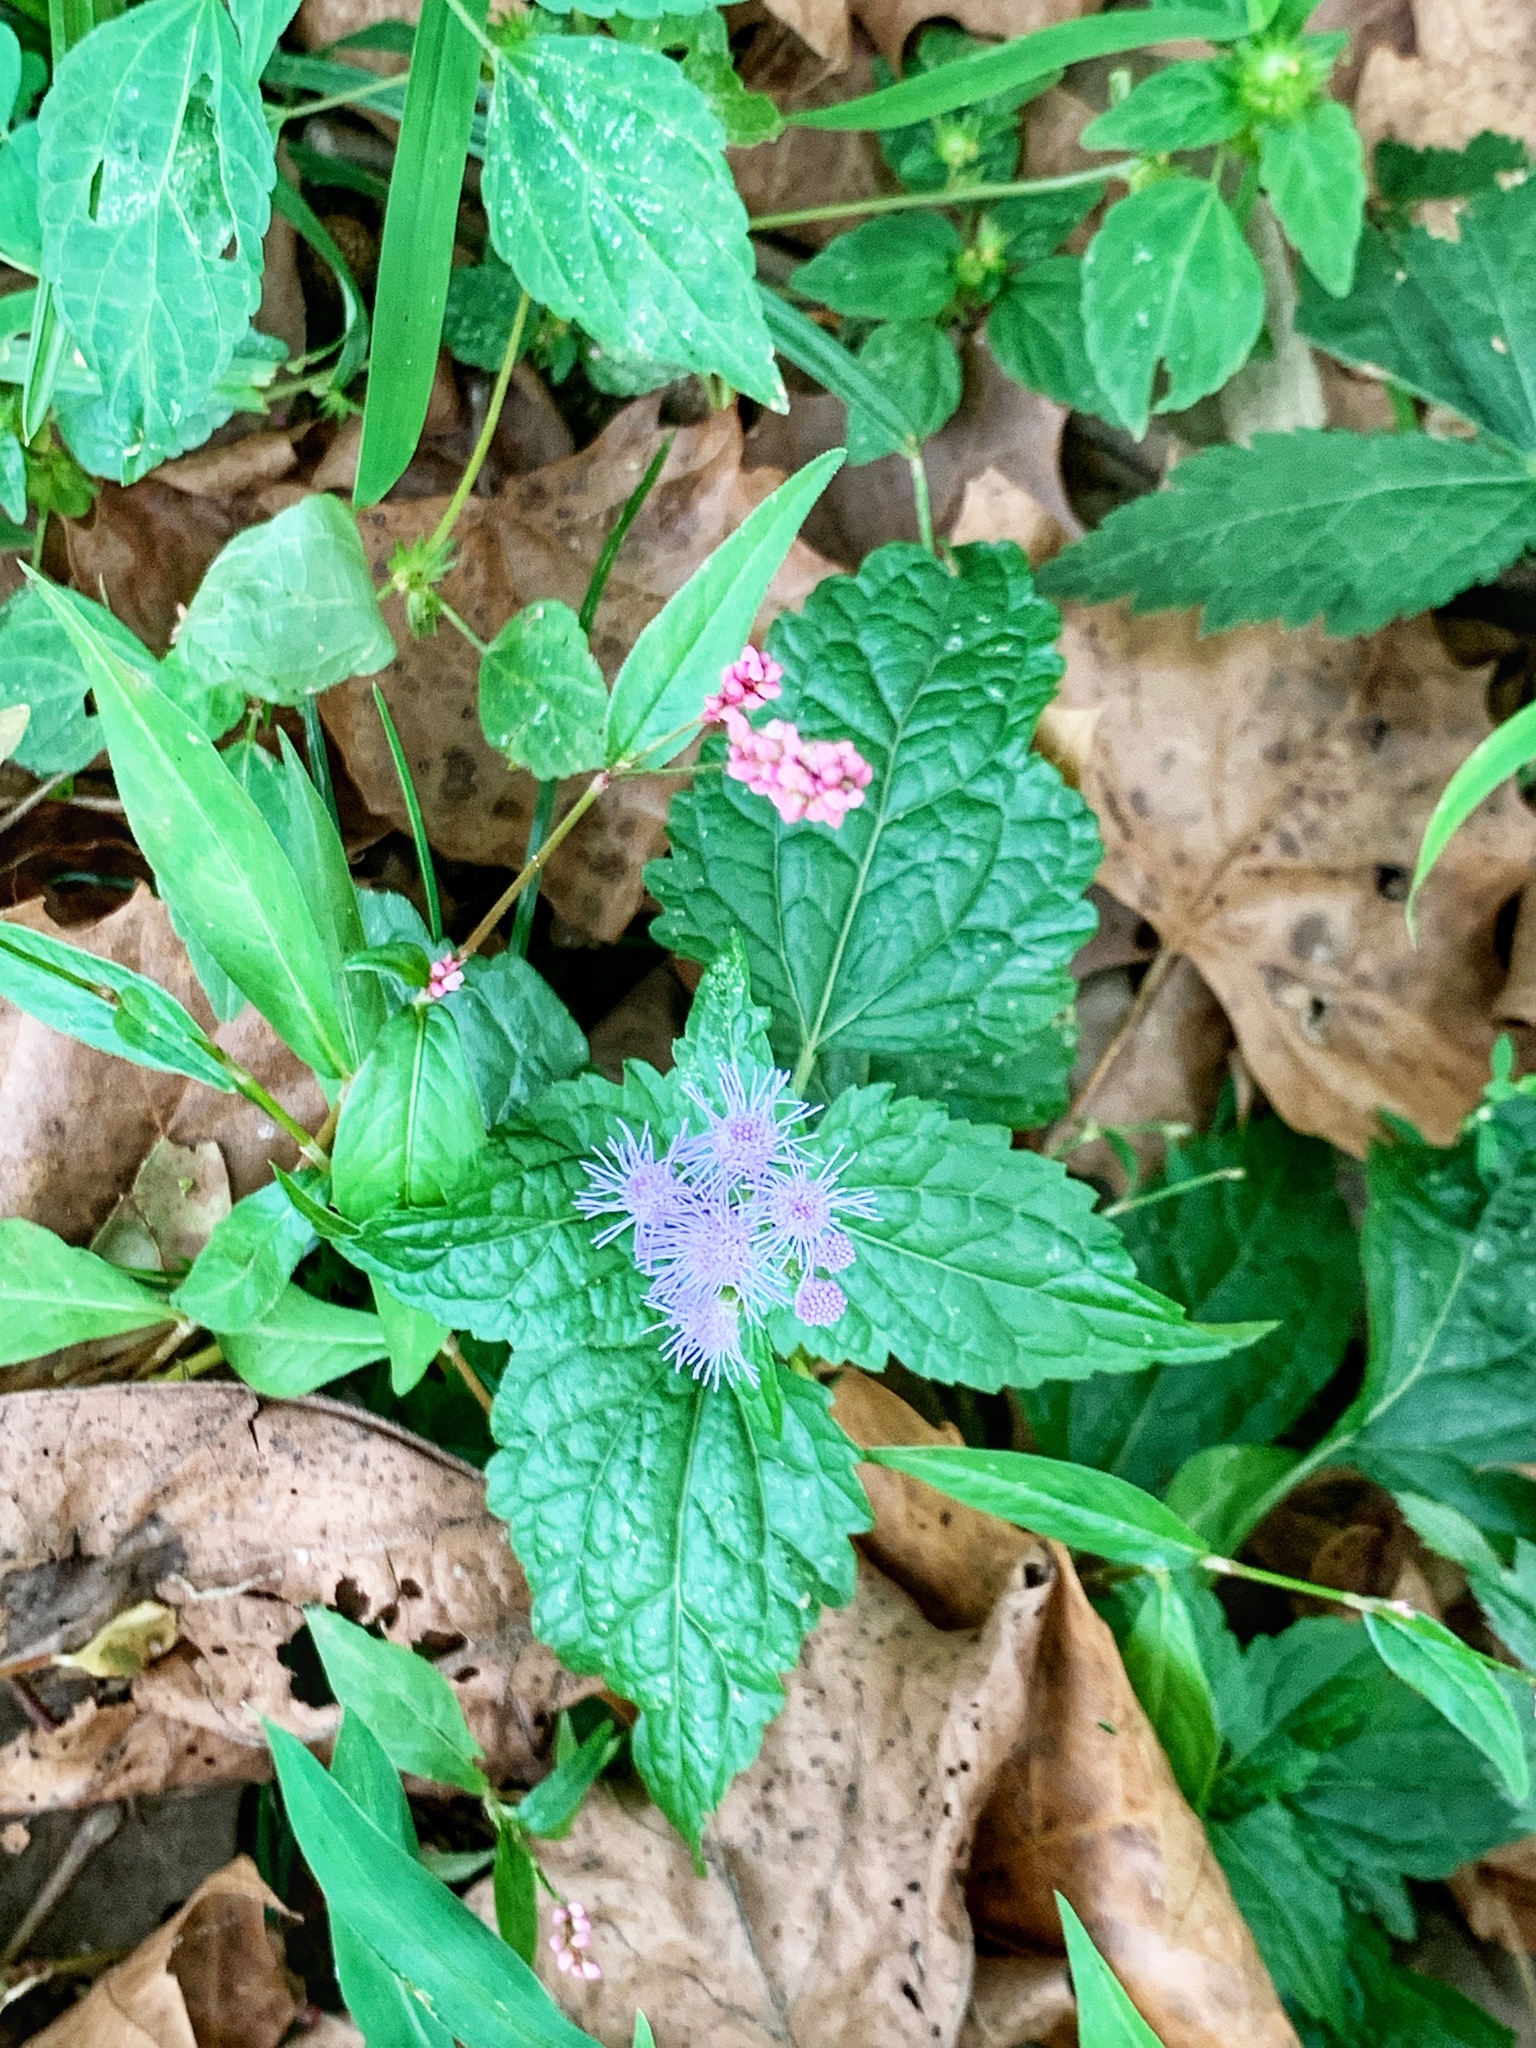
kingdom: Plantae
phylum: Tracheophyta
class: Magnoliopsida
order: Asterales
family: Asteraceae
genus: Conoclinium
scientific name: Conoclinium coelestinum
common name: Blue mistflower
